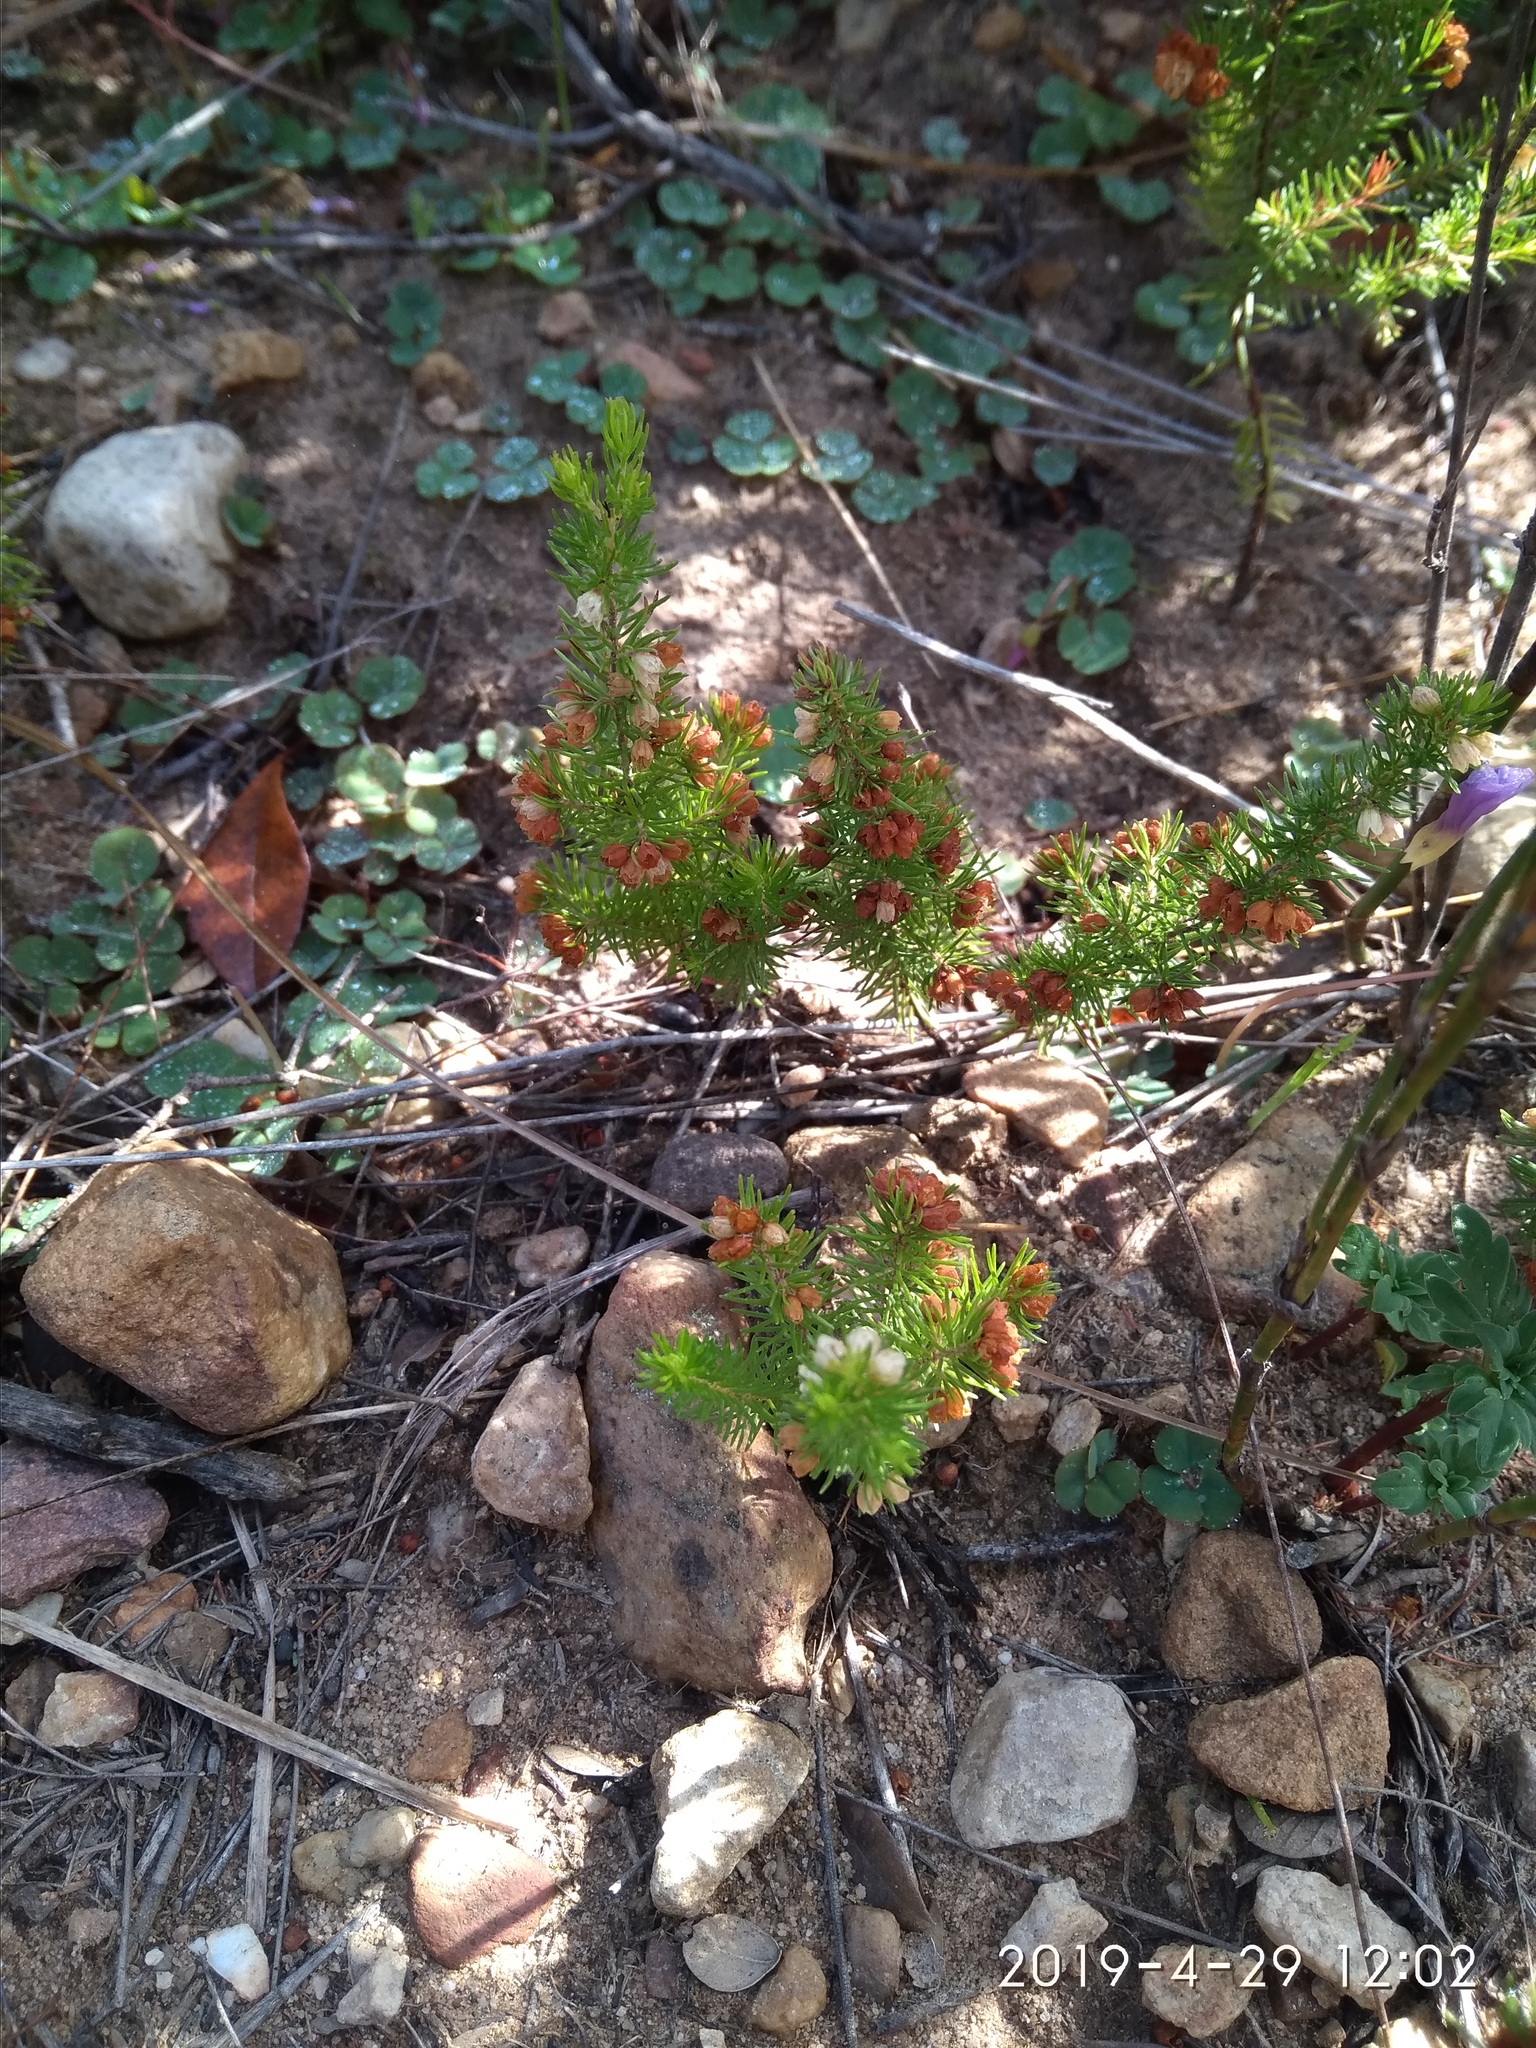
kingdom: Plantae
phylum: Tracheophyta
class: Magnoliopsida
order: Ericales
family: Ericaceae
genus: Erica
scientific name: Erica aemula
